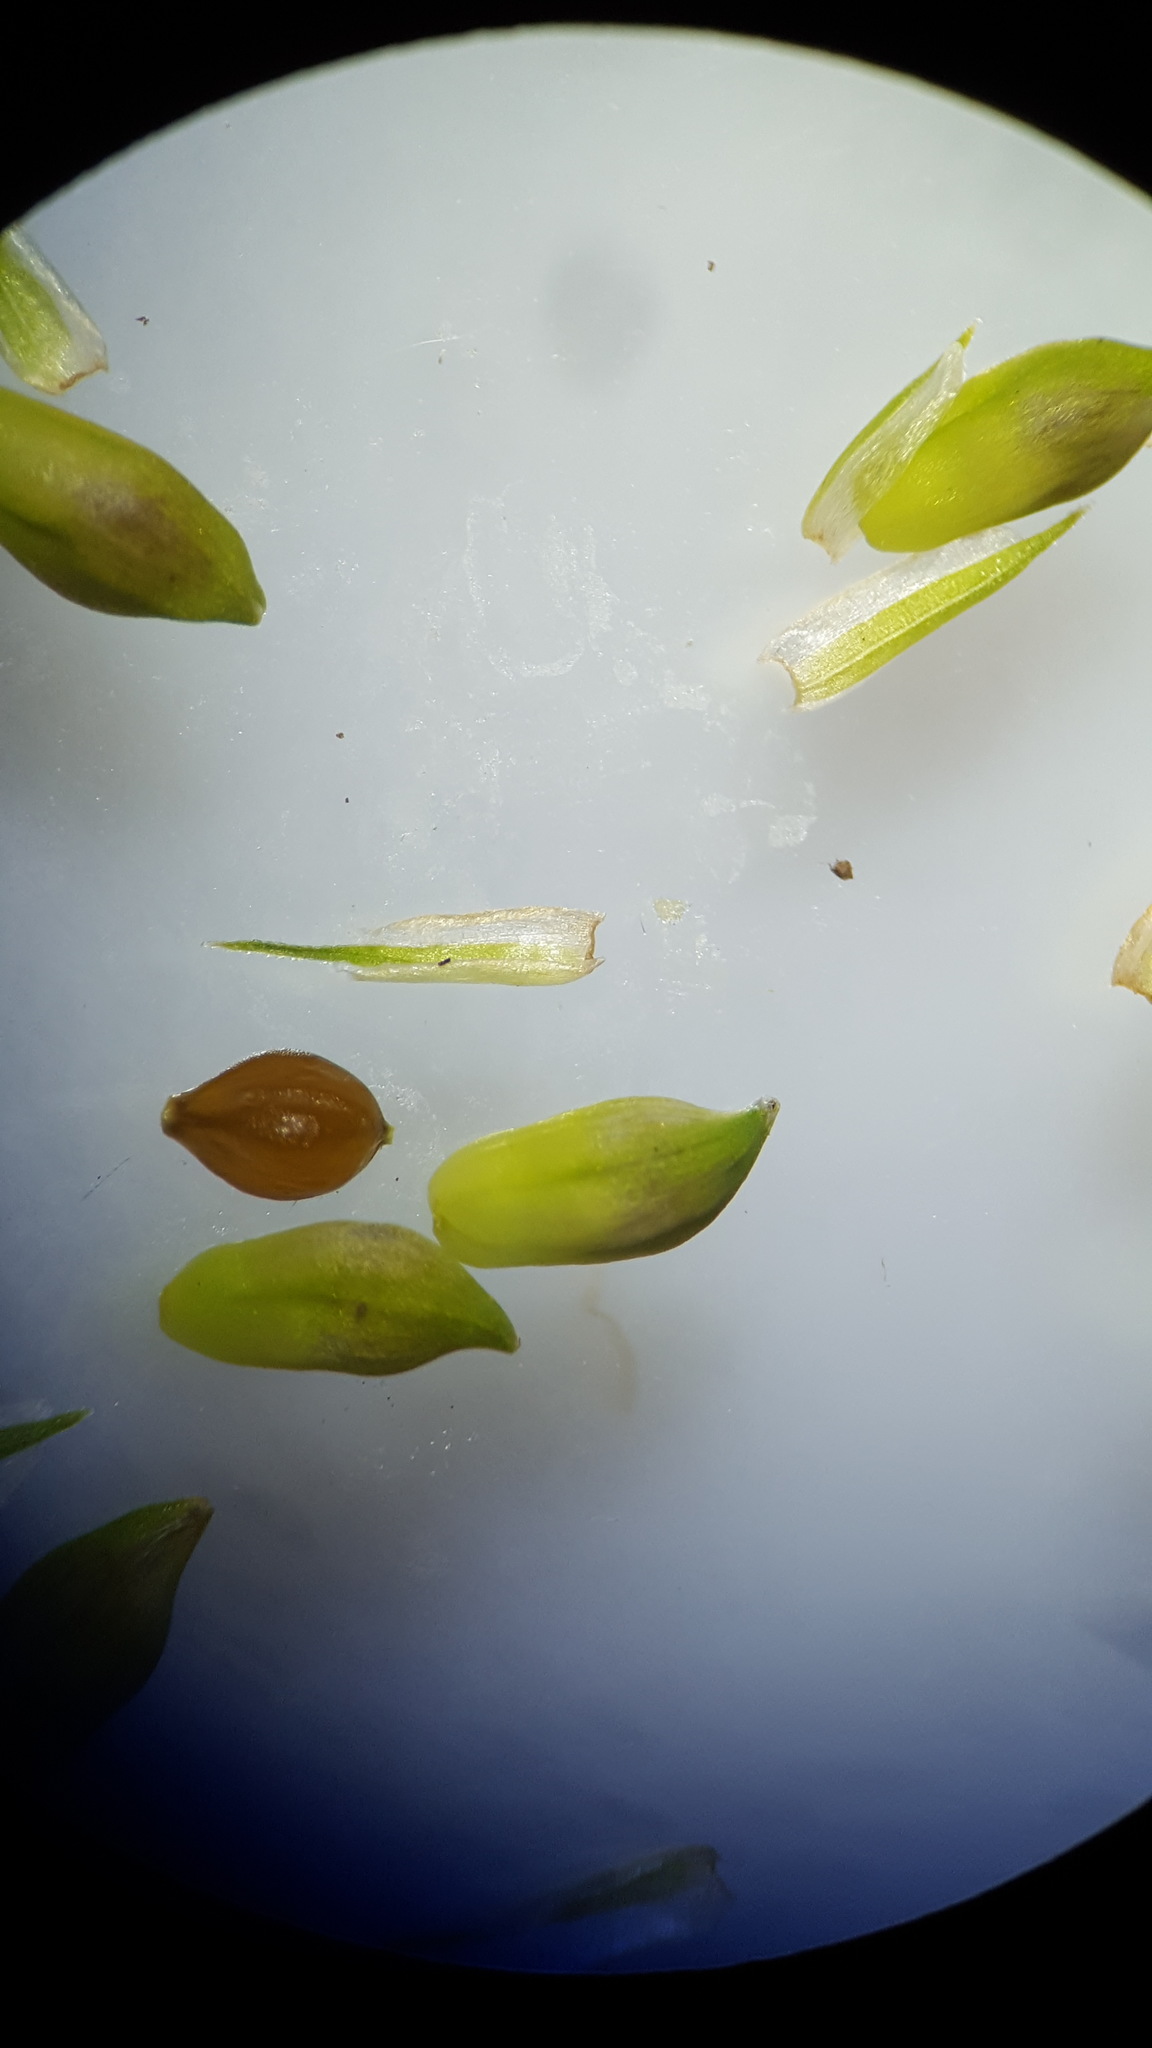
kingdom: Plantae
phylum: Tracheophyta
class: Liliopsida
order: Poales
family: Cyperaceae
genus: Carex
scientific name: Carex leptonervia
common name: Few-nerved wood sedge
